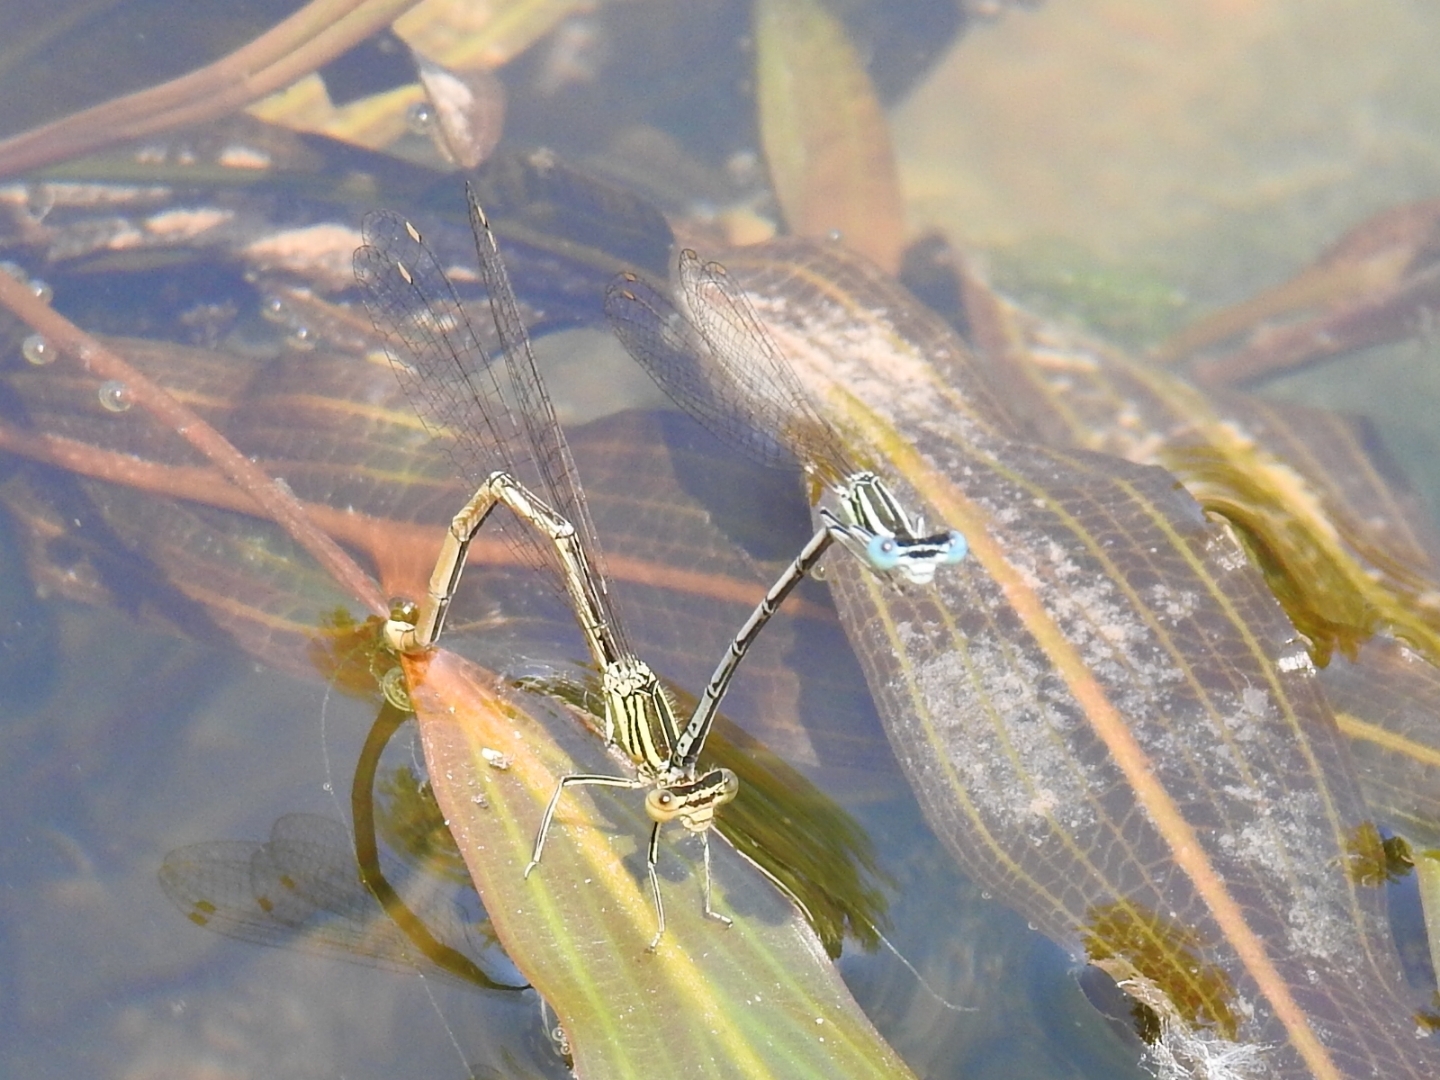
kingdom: Animalia
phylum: Arthropoda
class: Insecta
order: Odonata
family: Platycnemididae
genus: Platycnemis
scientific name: Platycnemis pennipes
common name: White-legged damselfly
